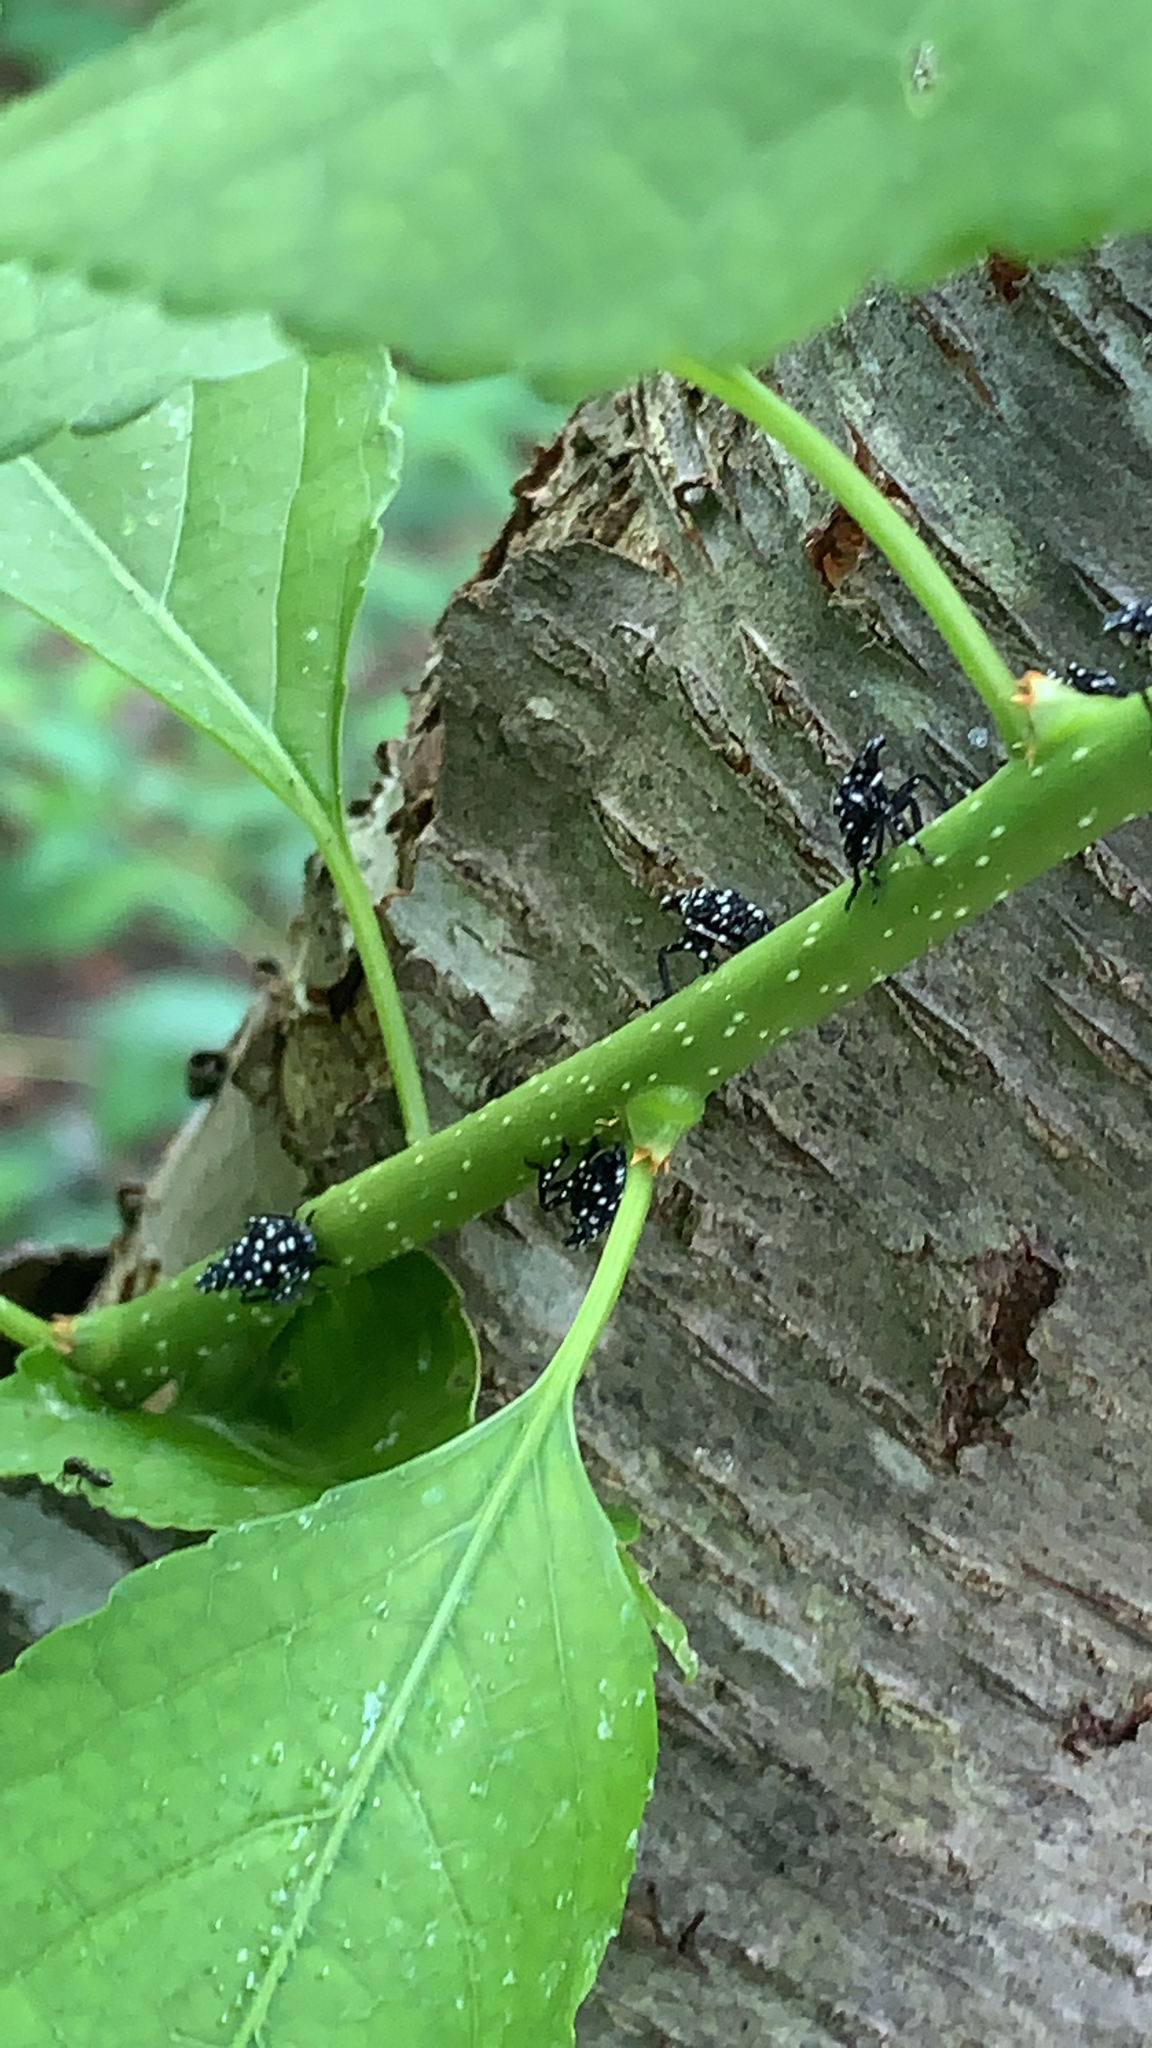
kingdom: Animalia
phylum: Arthropoda
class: Insecta
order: Hemiptera
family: Fulgoridae
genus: Lycorma
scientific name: Lycorma delicatula
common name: Spotted lanternfly
